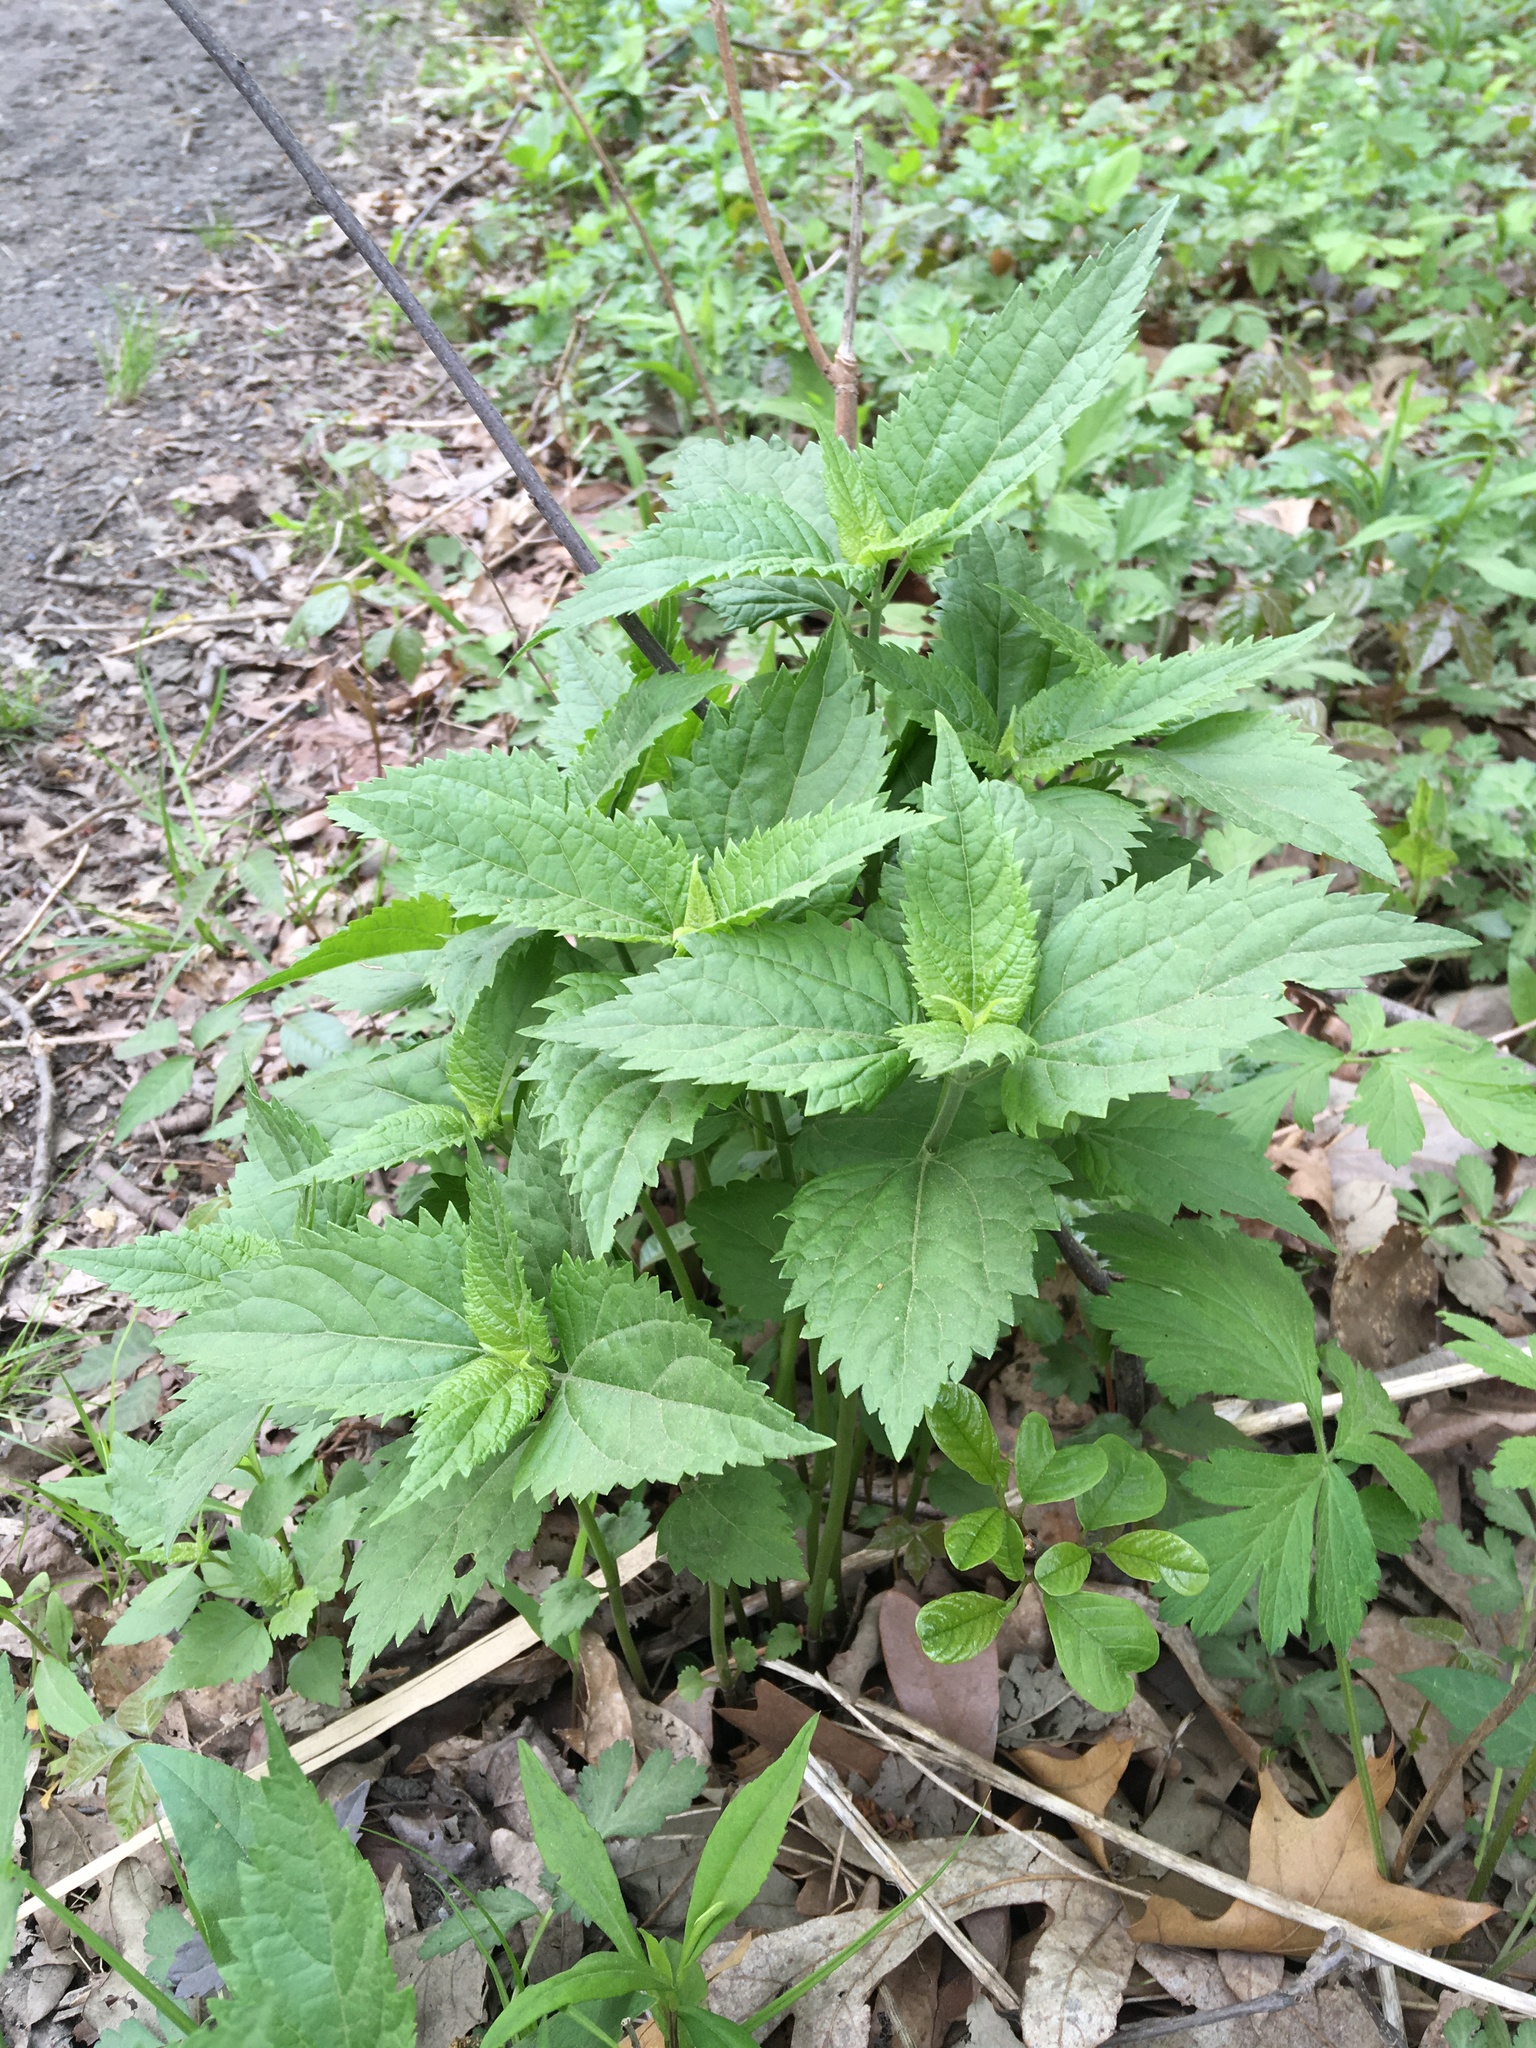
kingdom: Plantae
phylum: Tracheophyta
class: Magnoliopsida
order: Asterales
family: Asteraceae
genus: Ageratina
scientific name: Ageratina altissima
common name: White snakeroot
